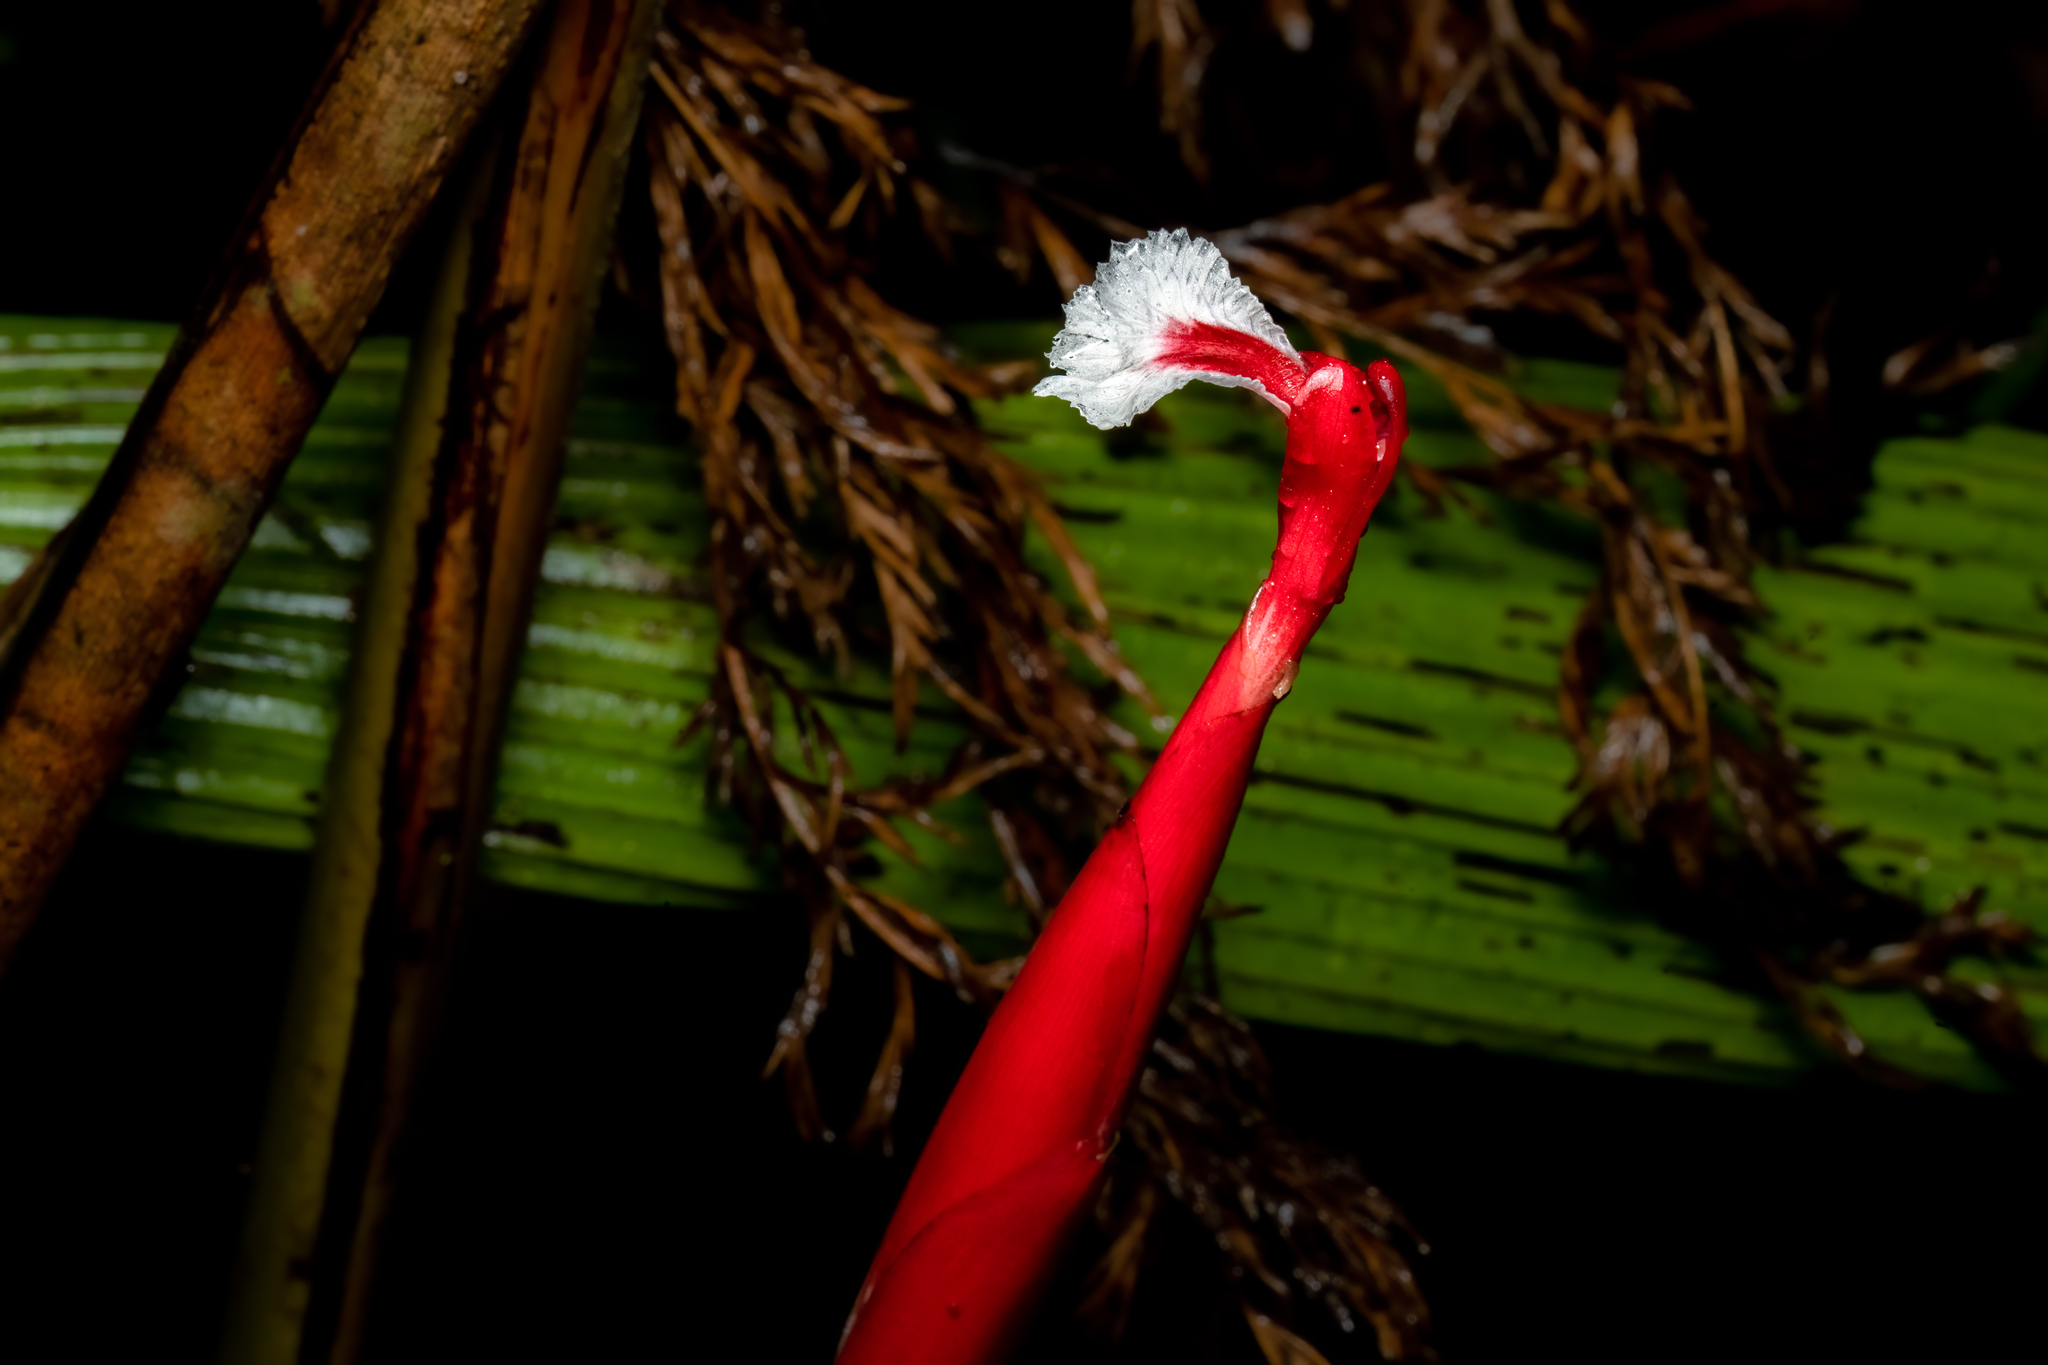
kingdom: Plantae
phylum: Tracheophyta
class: Liliopsida
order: Zingiberales
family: Zingiberaceae
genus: Hornstedtia
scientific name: Hornstedtia gracilis
